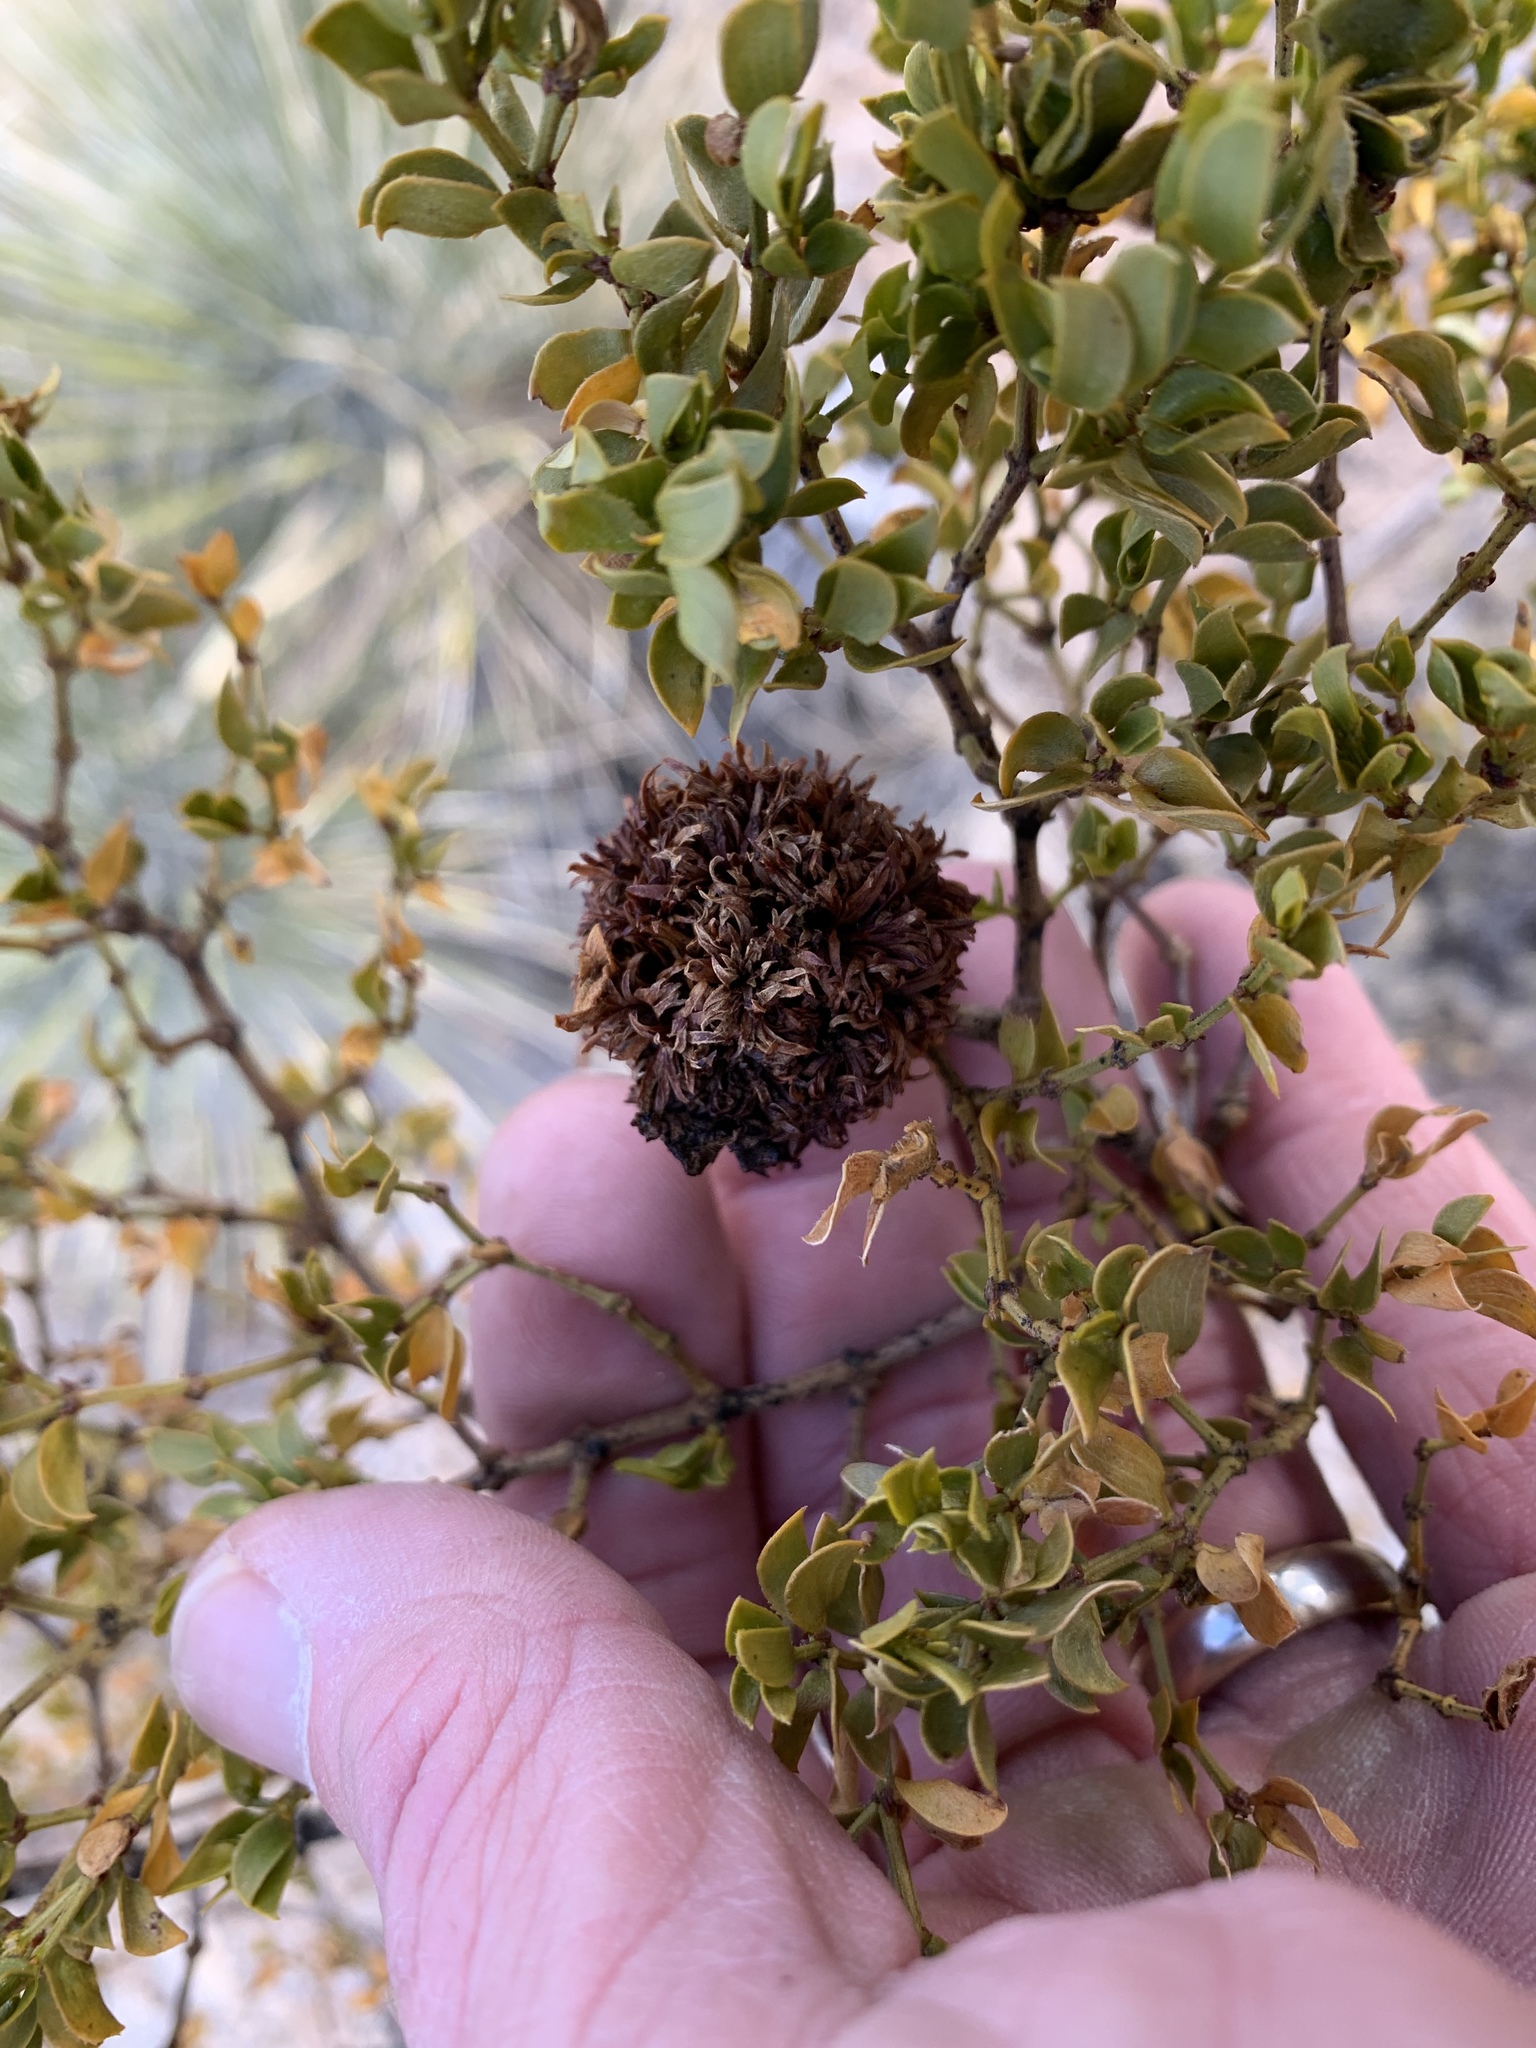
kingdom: Animalia
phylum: Arthropoda
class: Insecta
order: Diptera
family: Cecidomyiidae
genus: Asphondylia
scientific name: Asphondylia auripila
